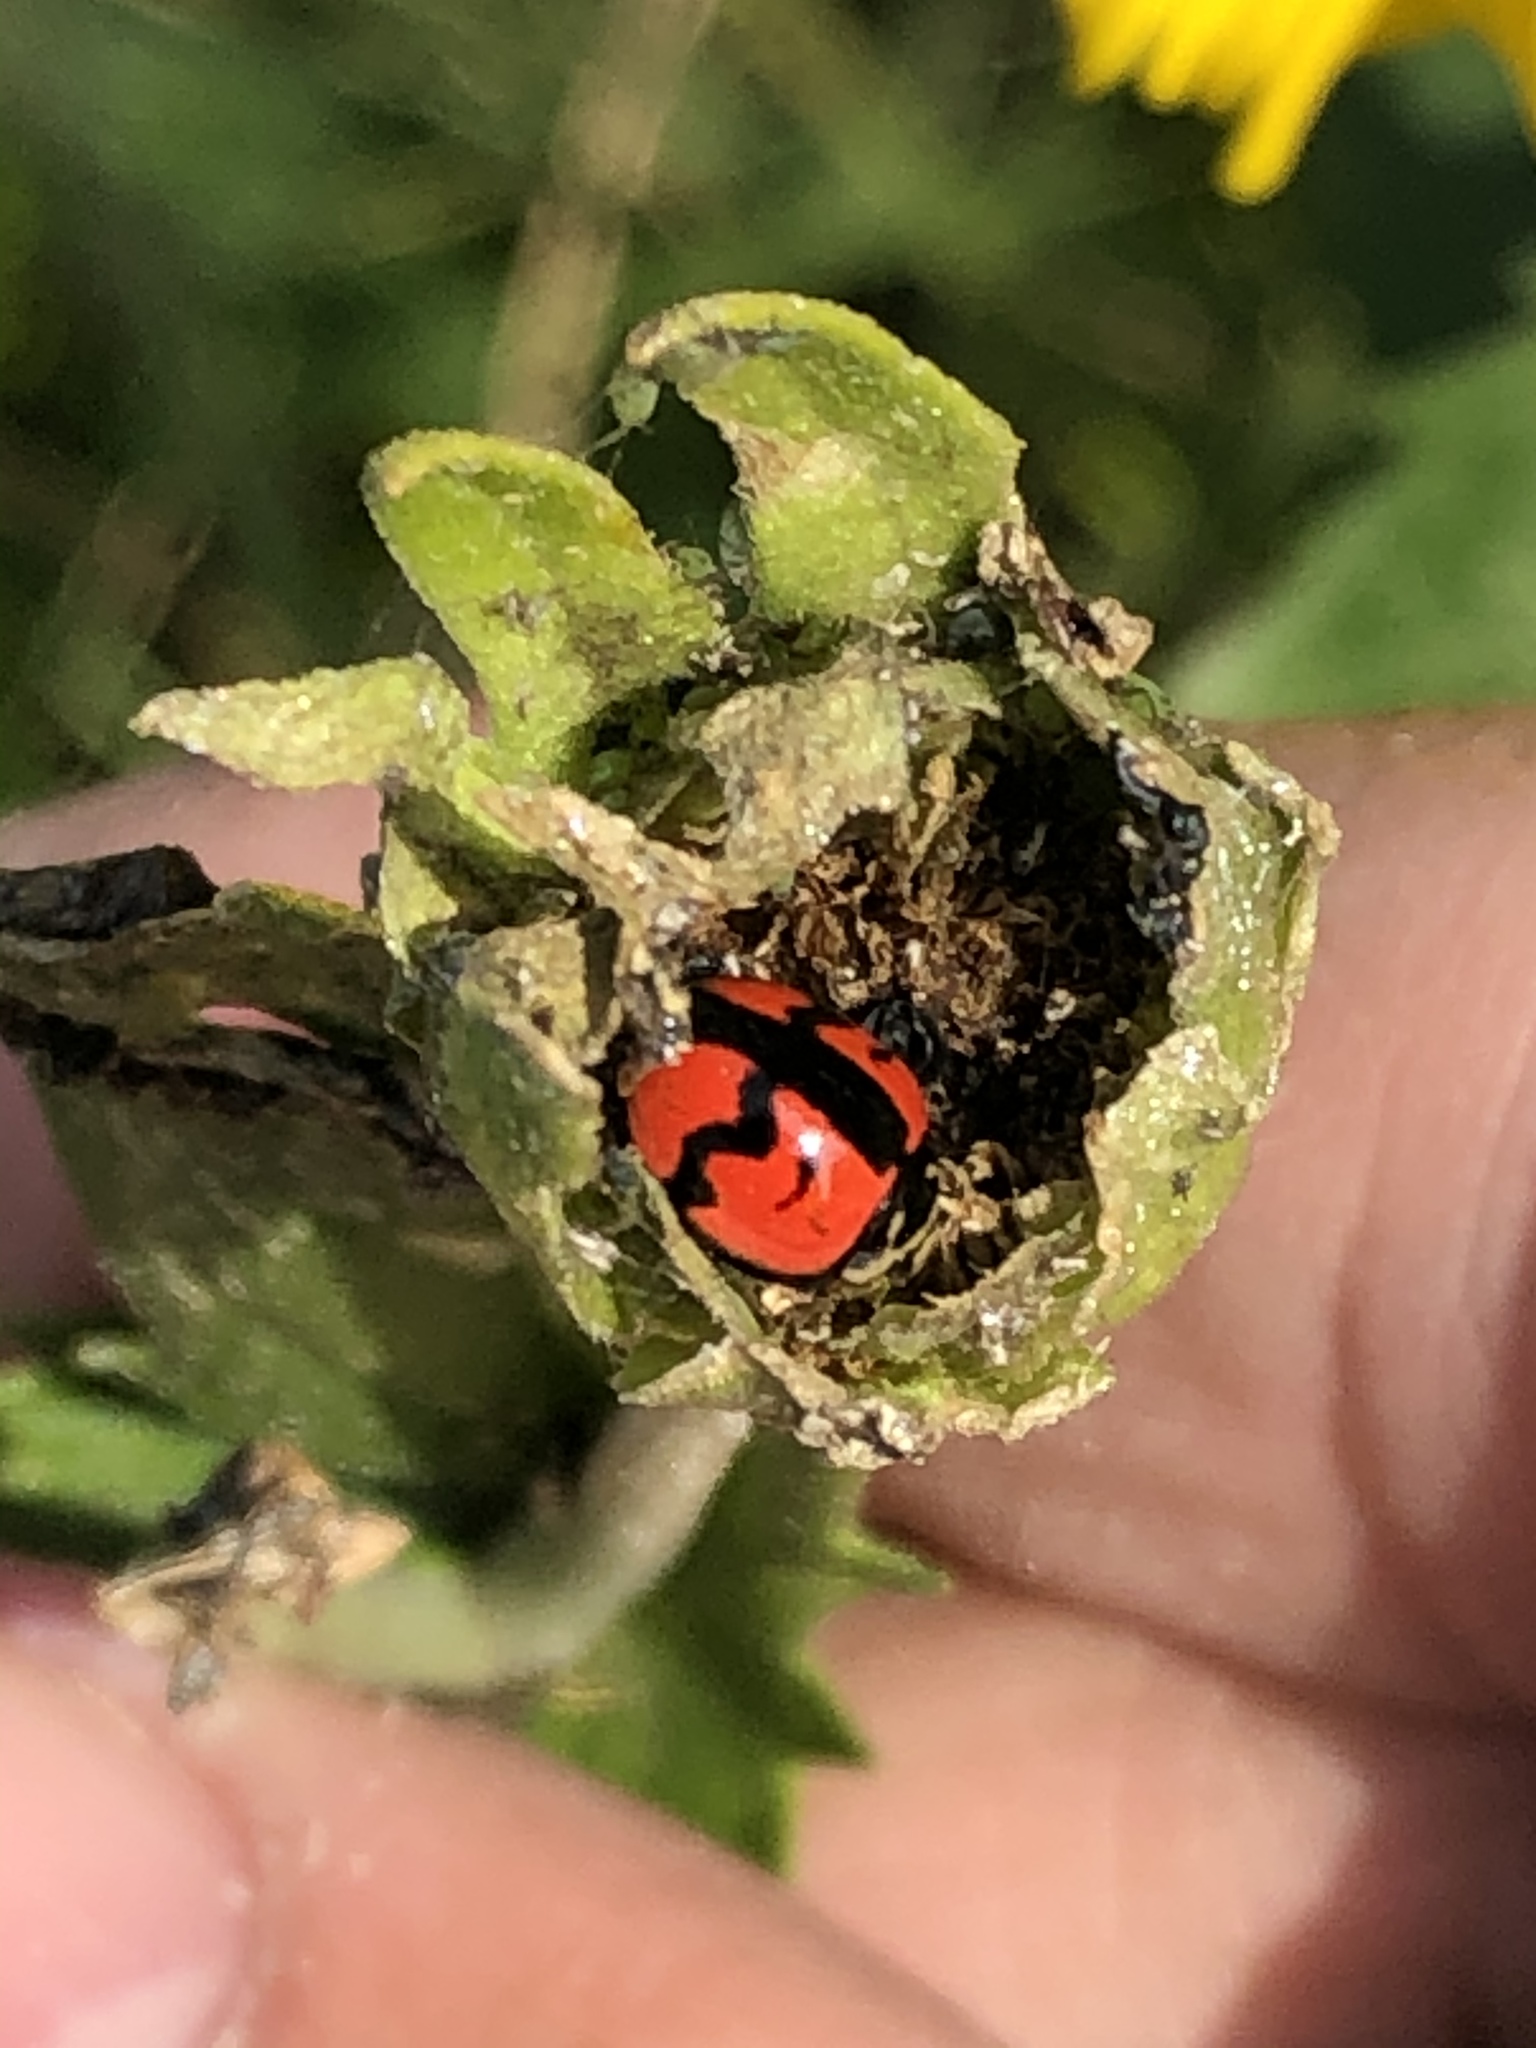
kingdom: Animalia
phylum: Arthropoda
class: Insecta
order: Coleoptera
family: Coccinellidae
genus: Harmonia
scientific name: Harmonia axyridis
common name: Harlequin ladybird
